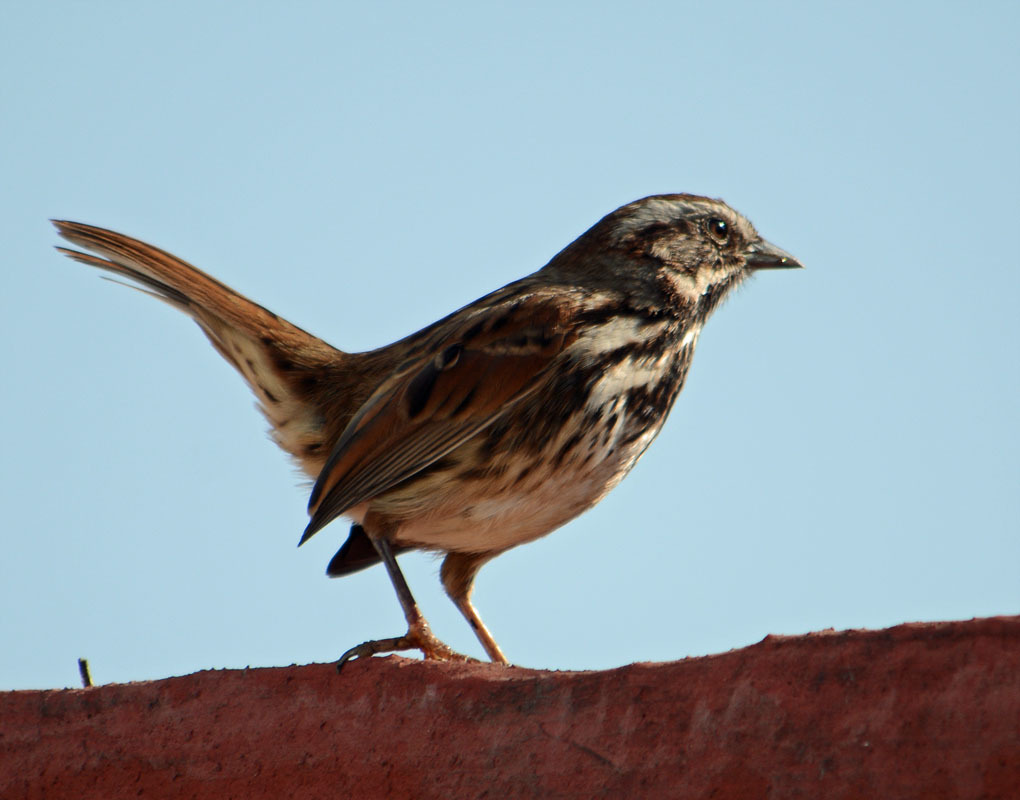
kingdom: Animalia
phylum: Chordata
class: Aves
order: Passeriformes
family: Passerellidae
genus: Melospiza
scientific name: Melospiza melodia
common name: Song sparrow
